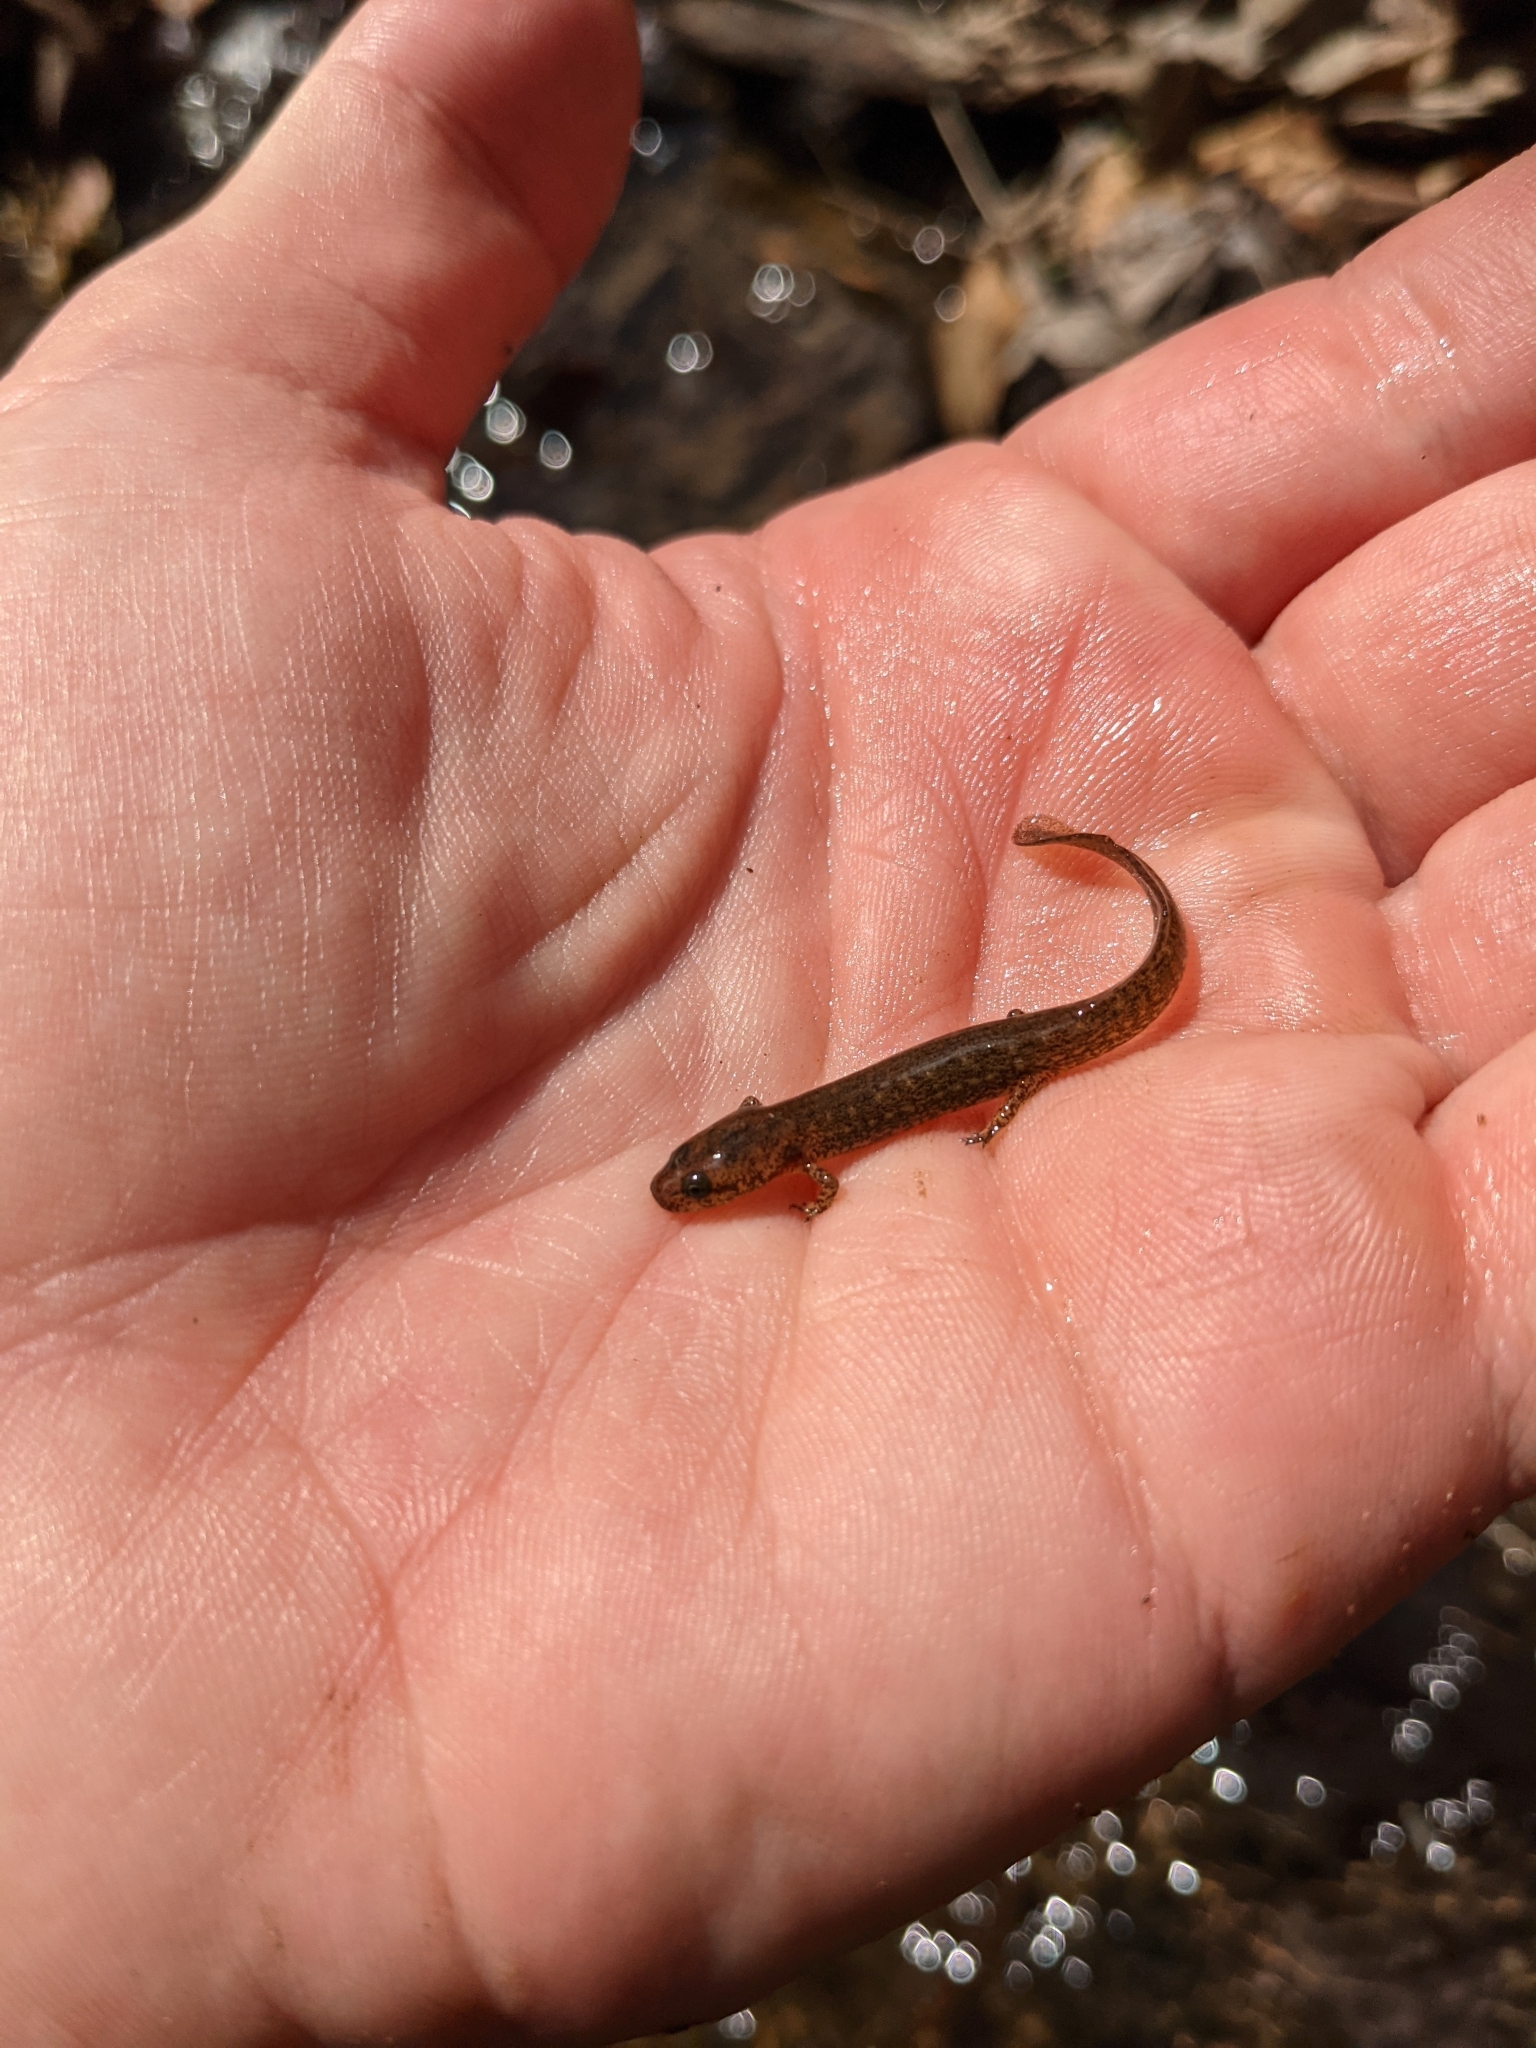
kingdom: Animalia
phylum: Chordata
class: Amphibia
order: Caudata
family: Plethodontidae
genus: Eurycea
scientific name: Eurycea bislineata
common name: Northern two-lined salamander
